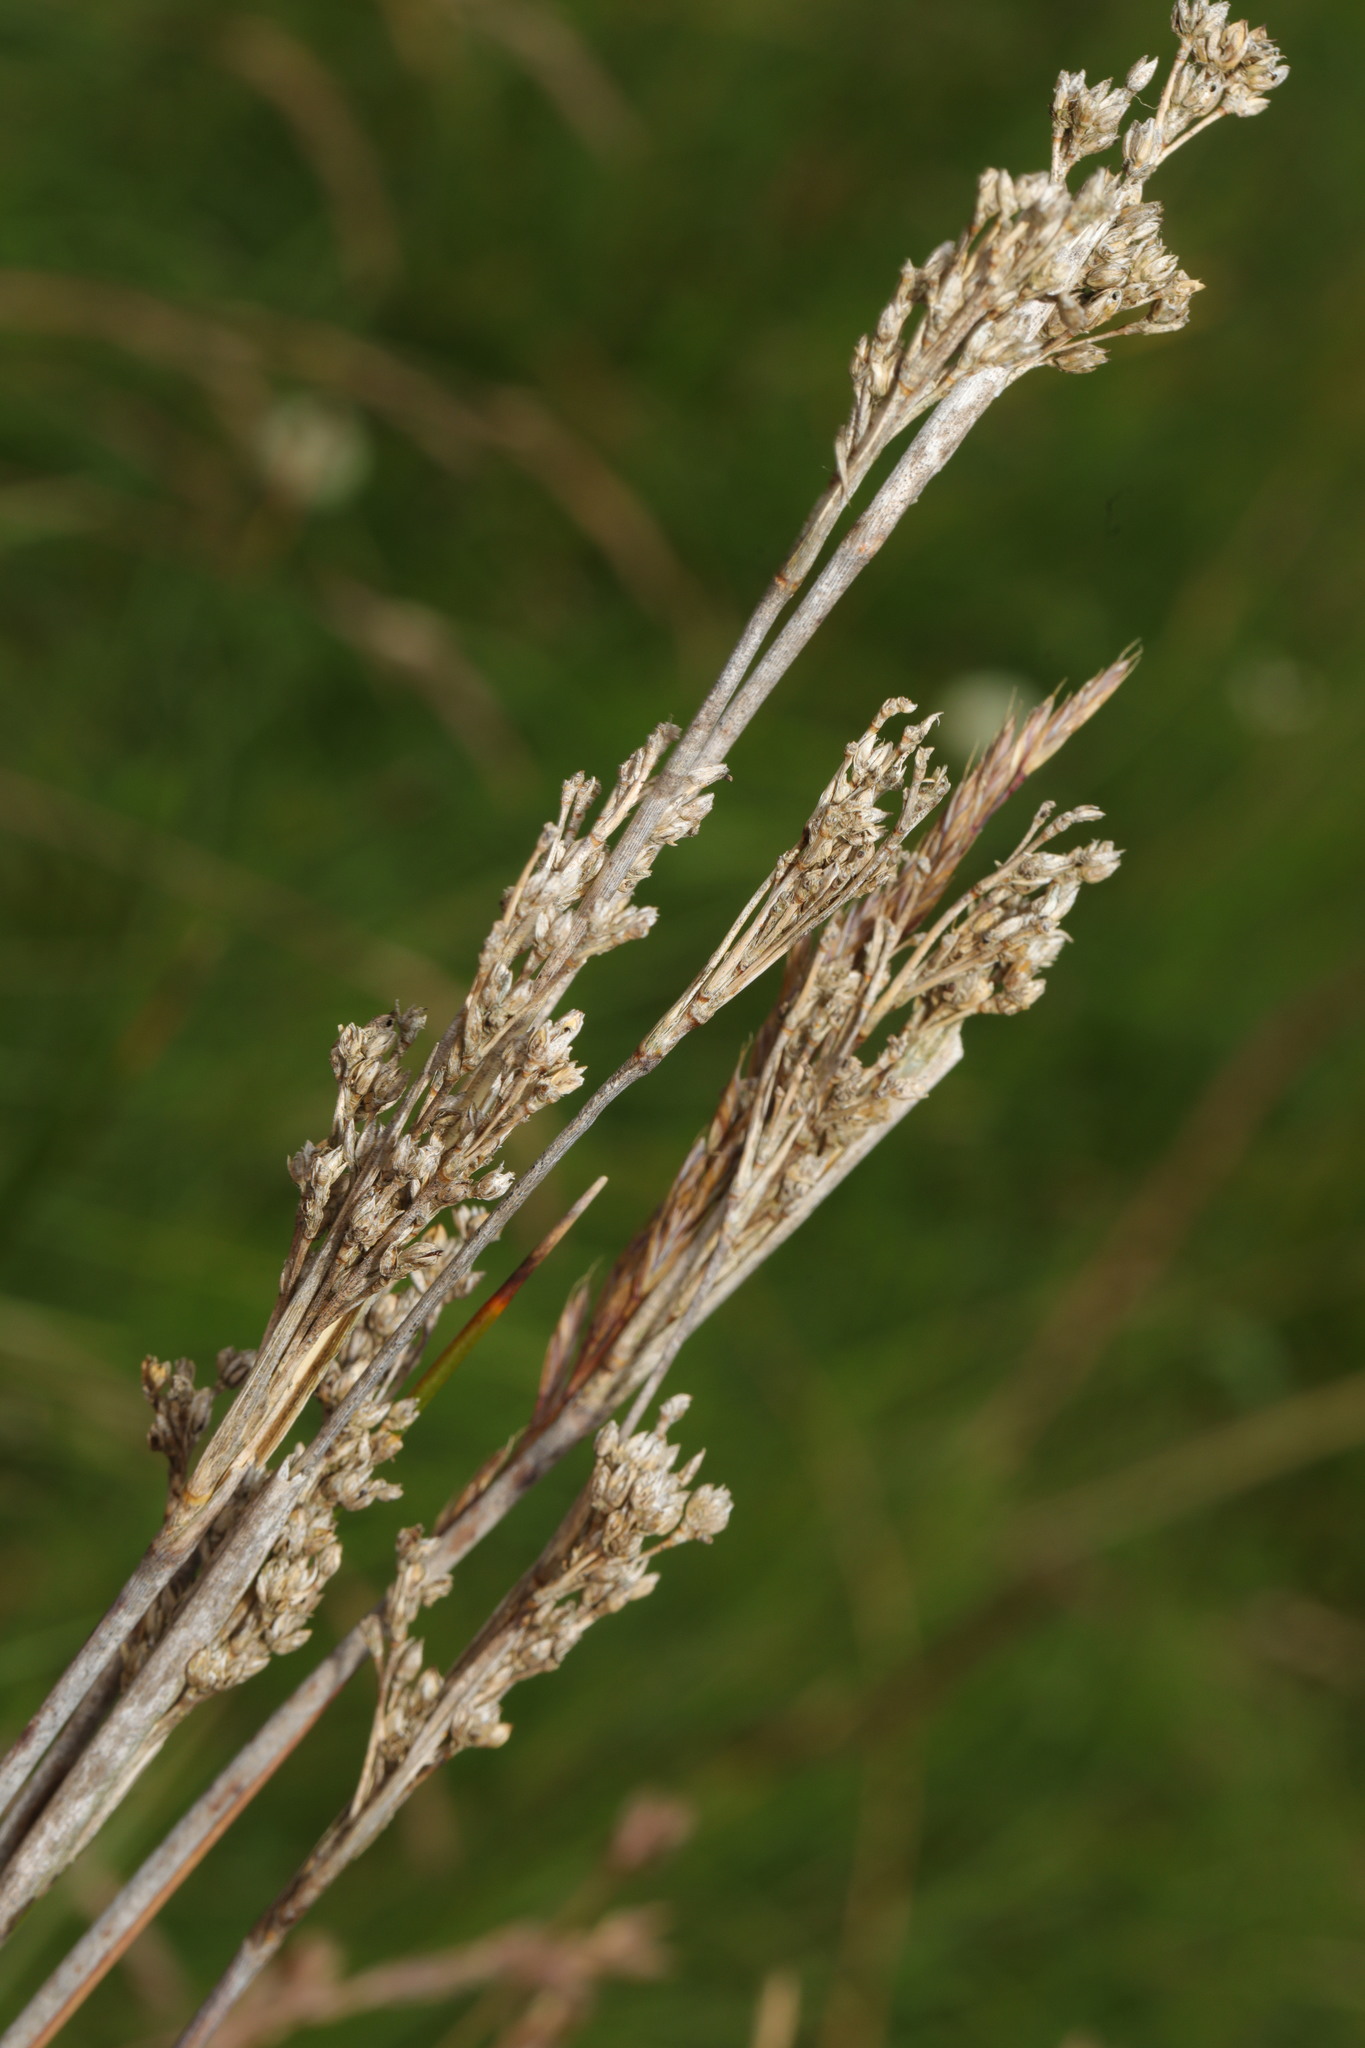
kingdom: Plantae
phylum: Tracheophyta
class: Liliopsida
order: Poales
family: Juncaceae
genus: Juncus
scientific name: Juncus maritimus
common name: Sea rush
